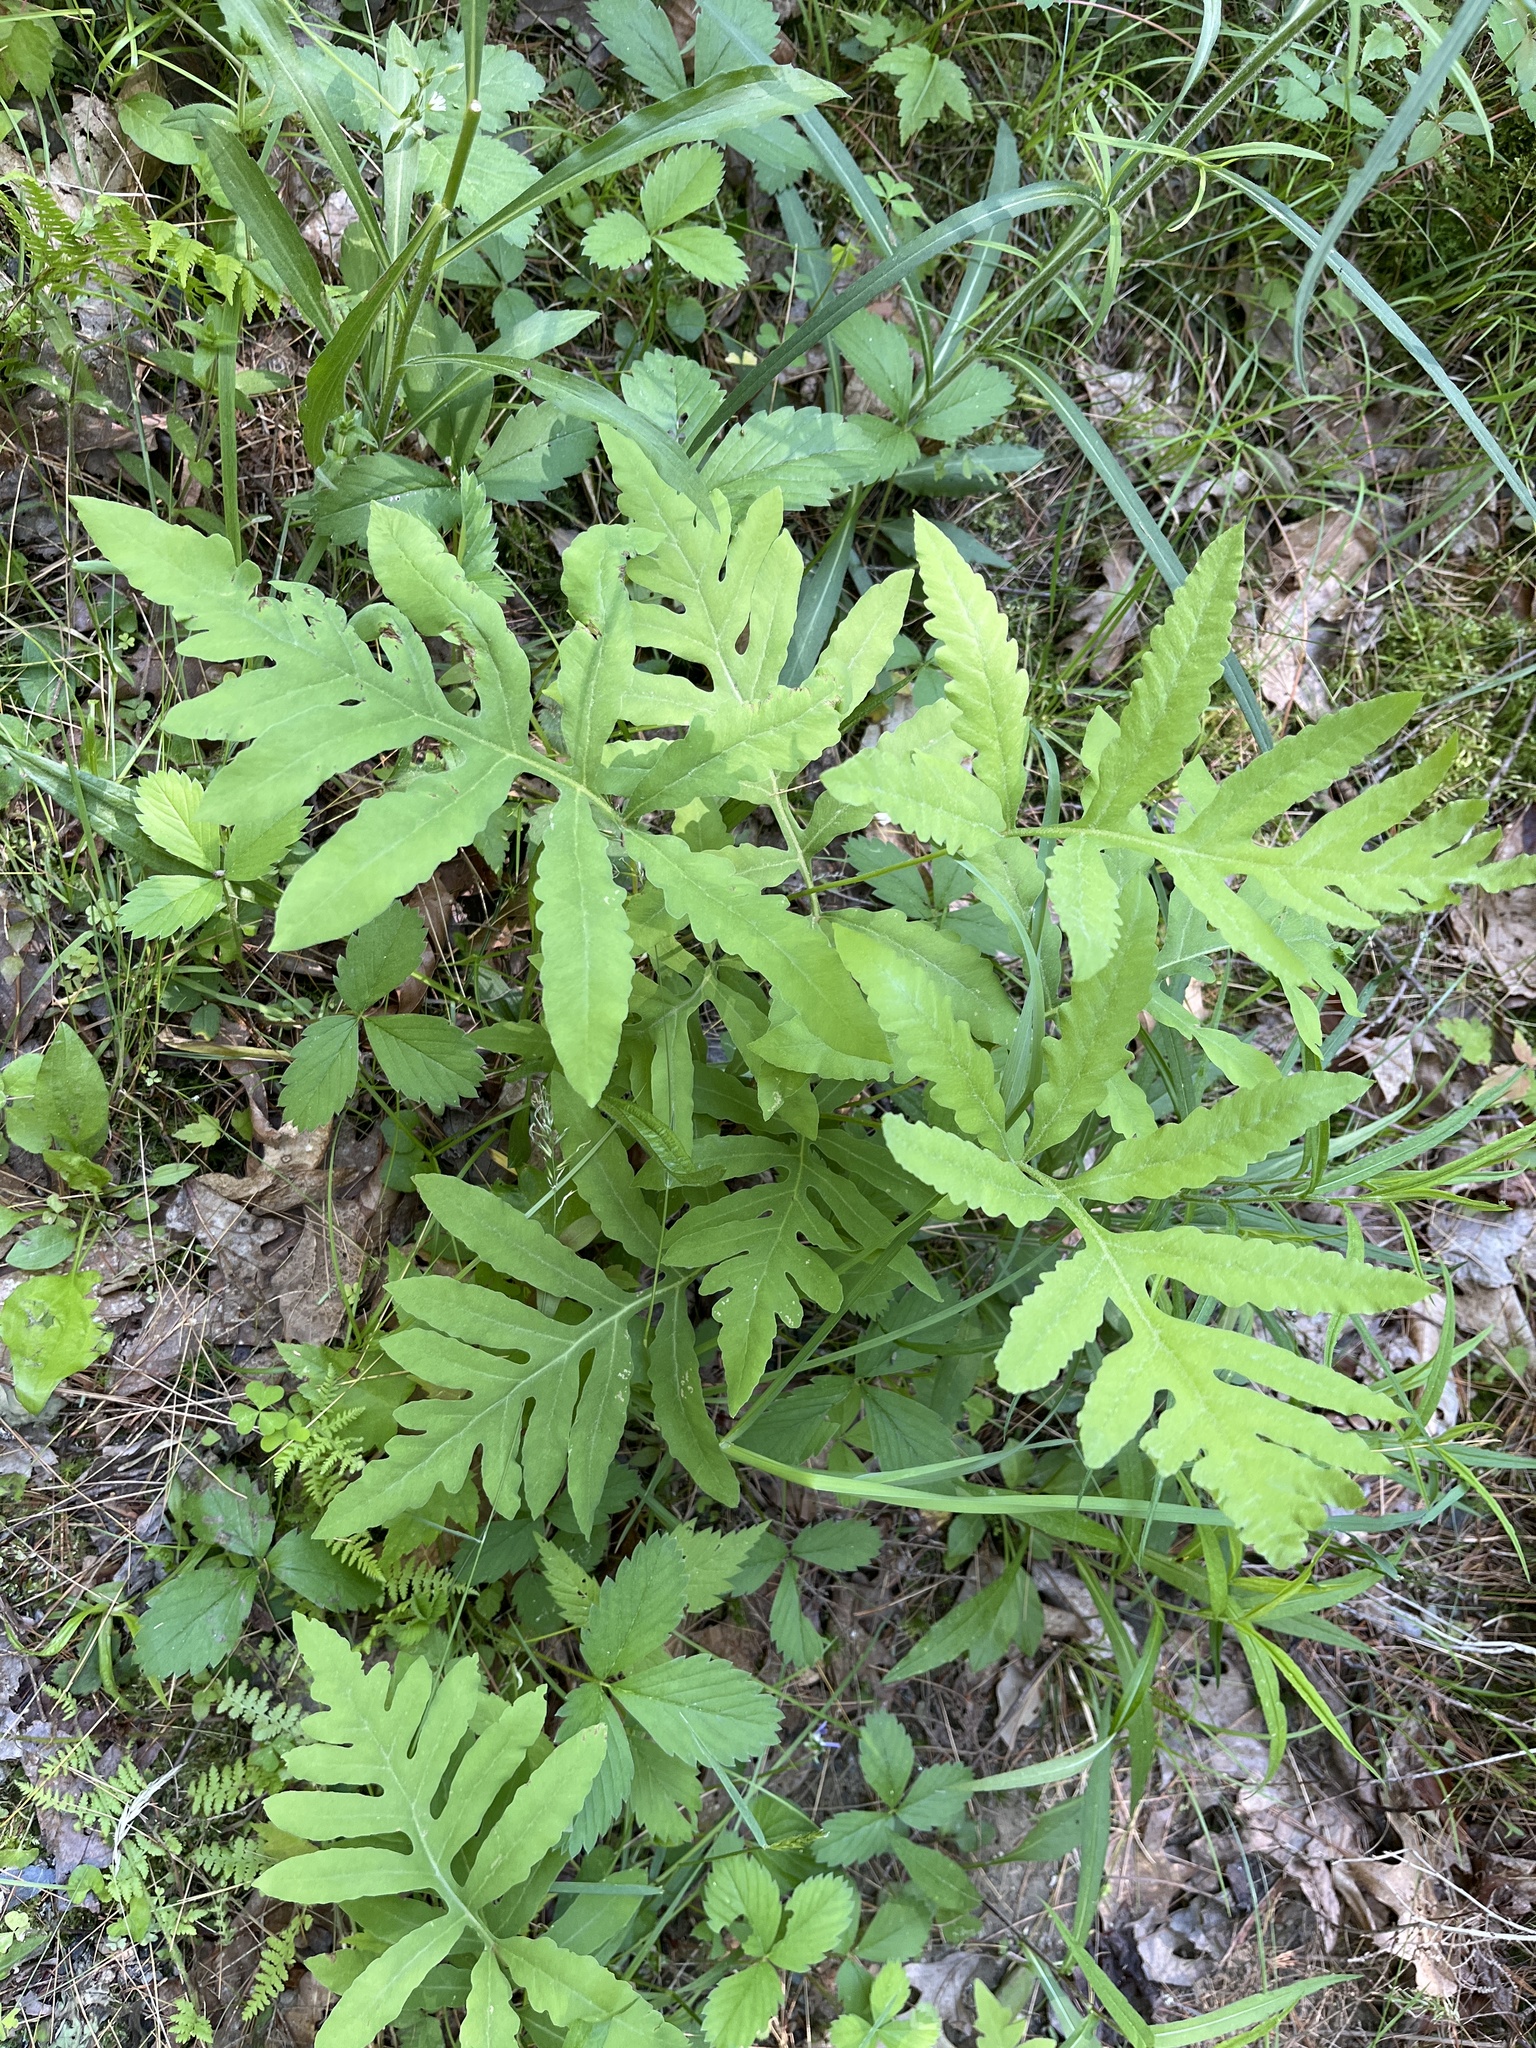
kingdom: Plantae
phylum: Tracheophyta
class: Polypodiopsida
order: Polypodiales
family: Onocleaceae
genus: Onoclea
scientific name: Onoclea sensibilis
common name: Sensitive fern
